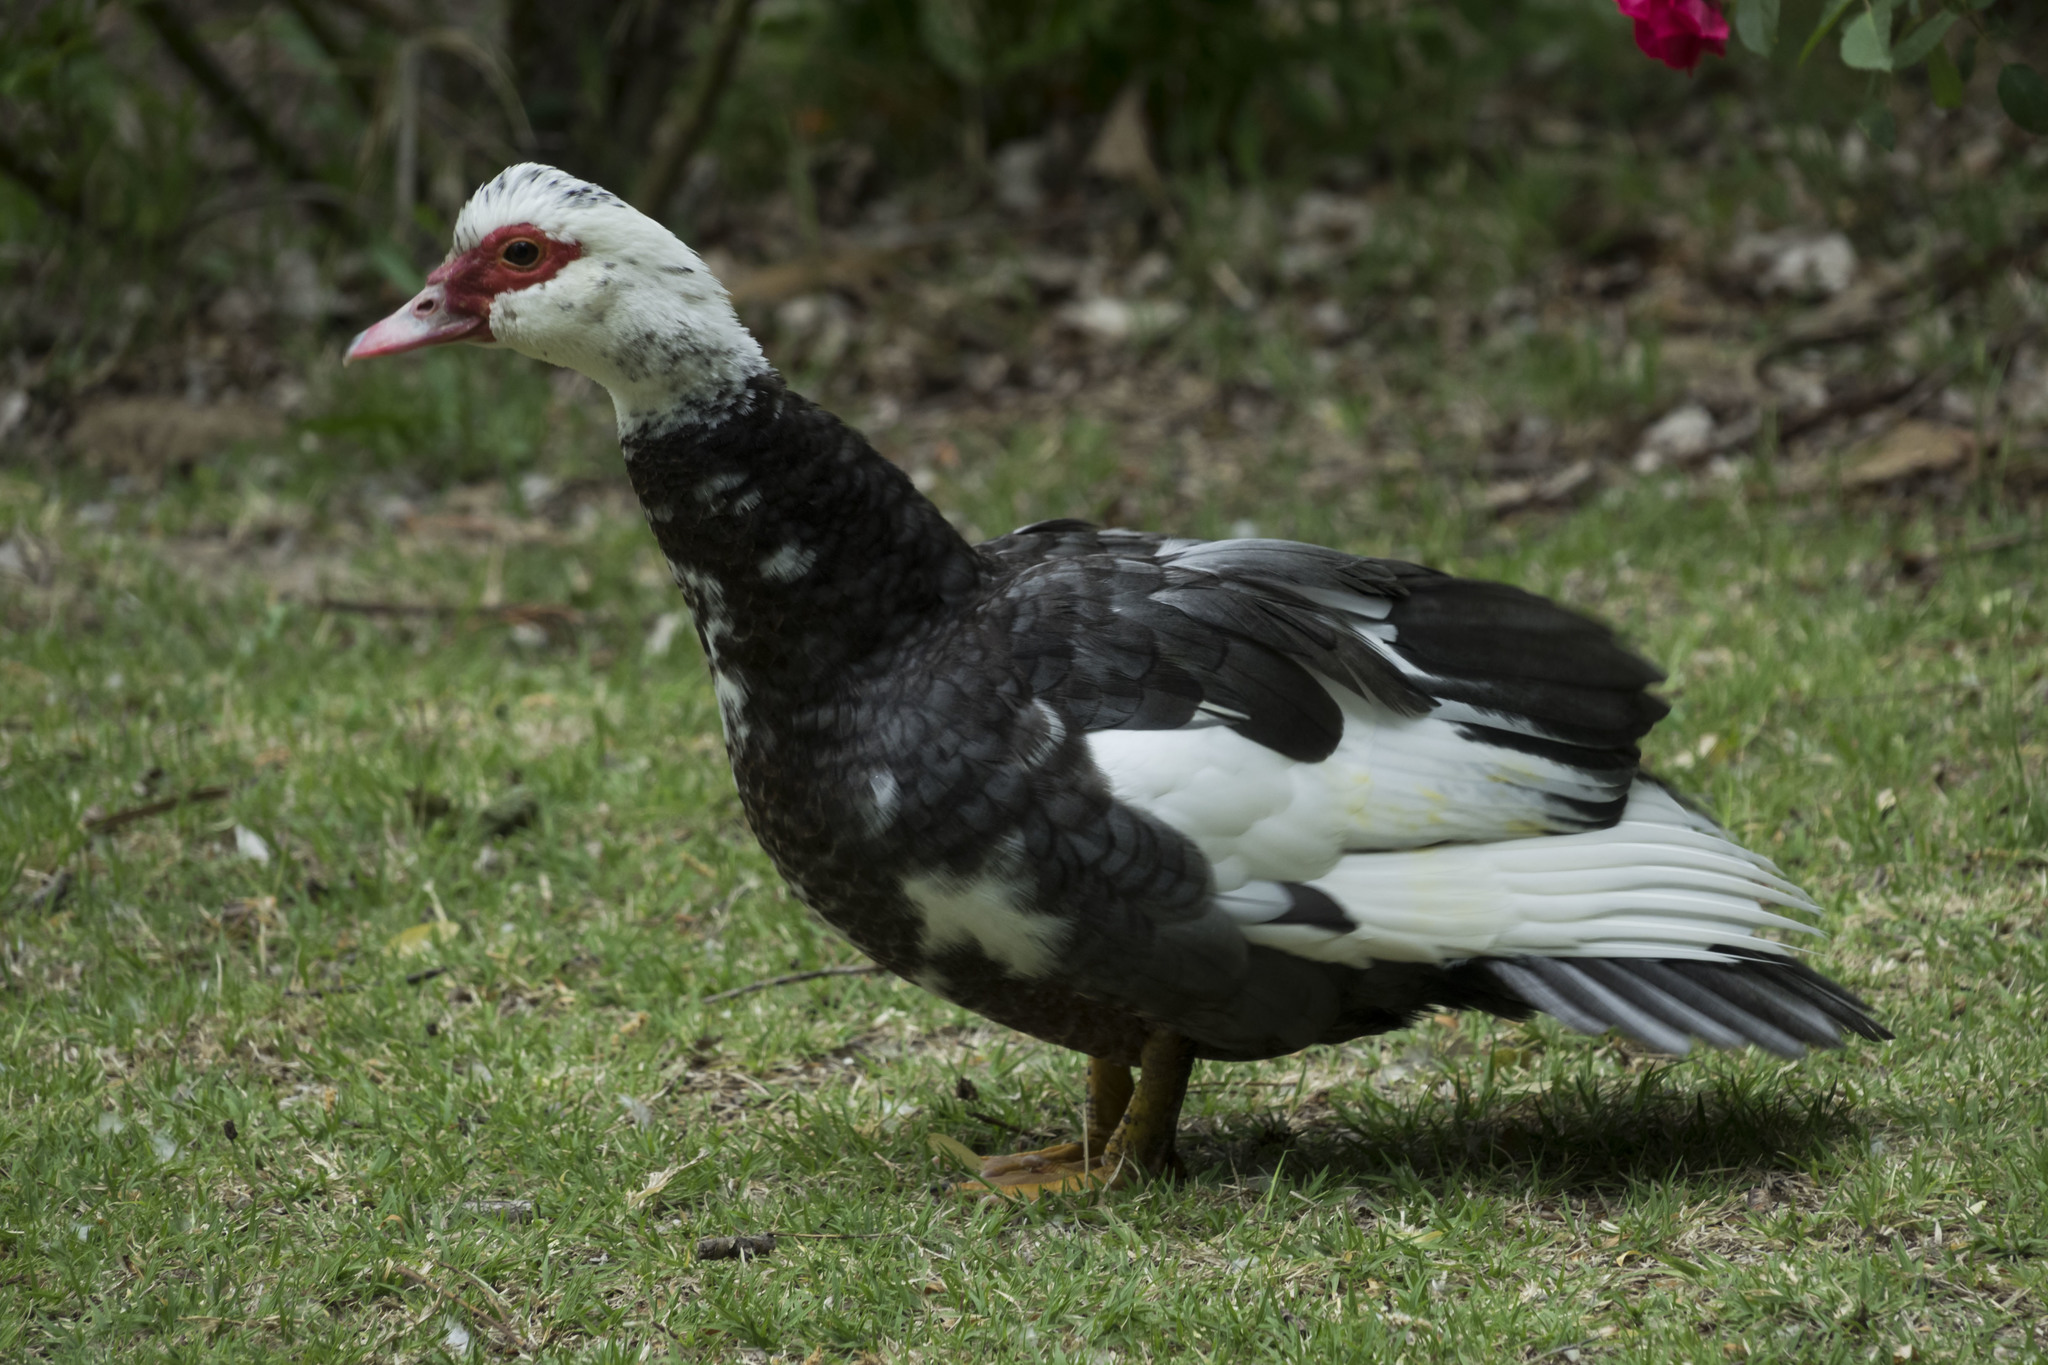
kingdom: Animalia
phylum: Chordata
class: Aves
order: Anseriformes
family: Anatidae
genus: Cairina
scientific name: Cairina moschata
